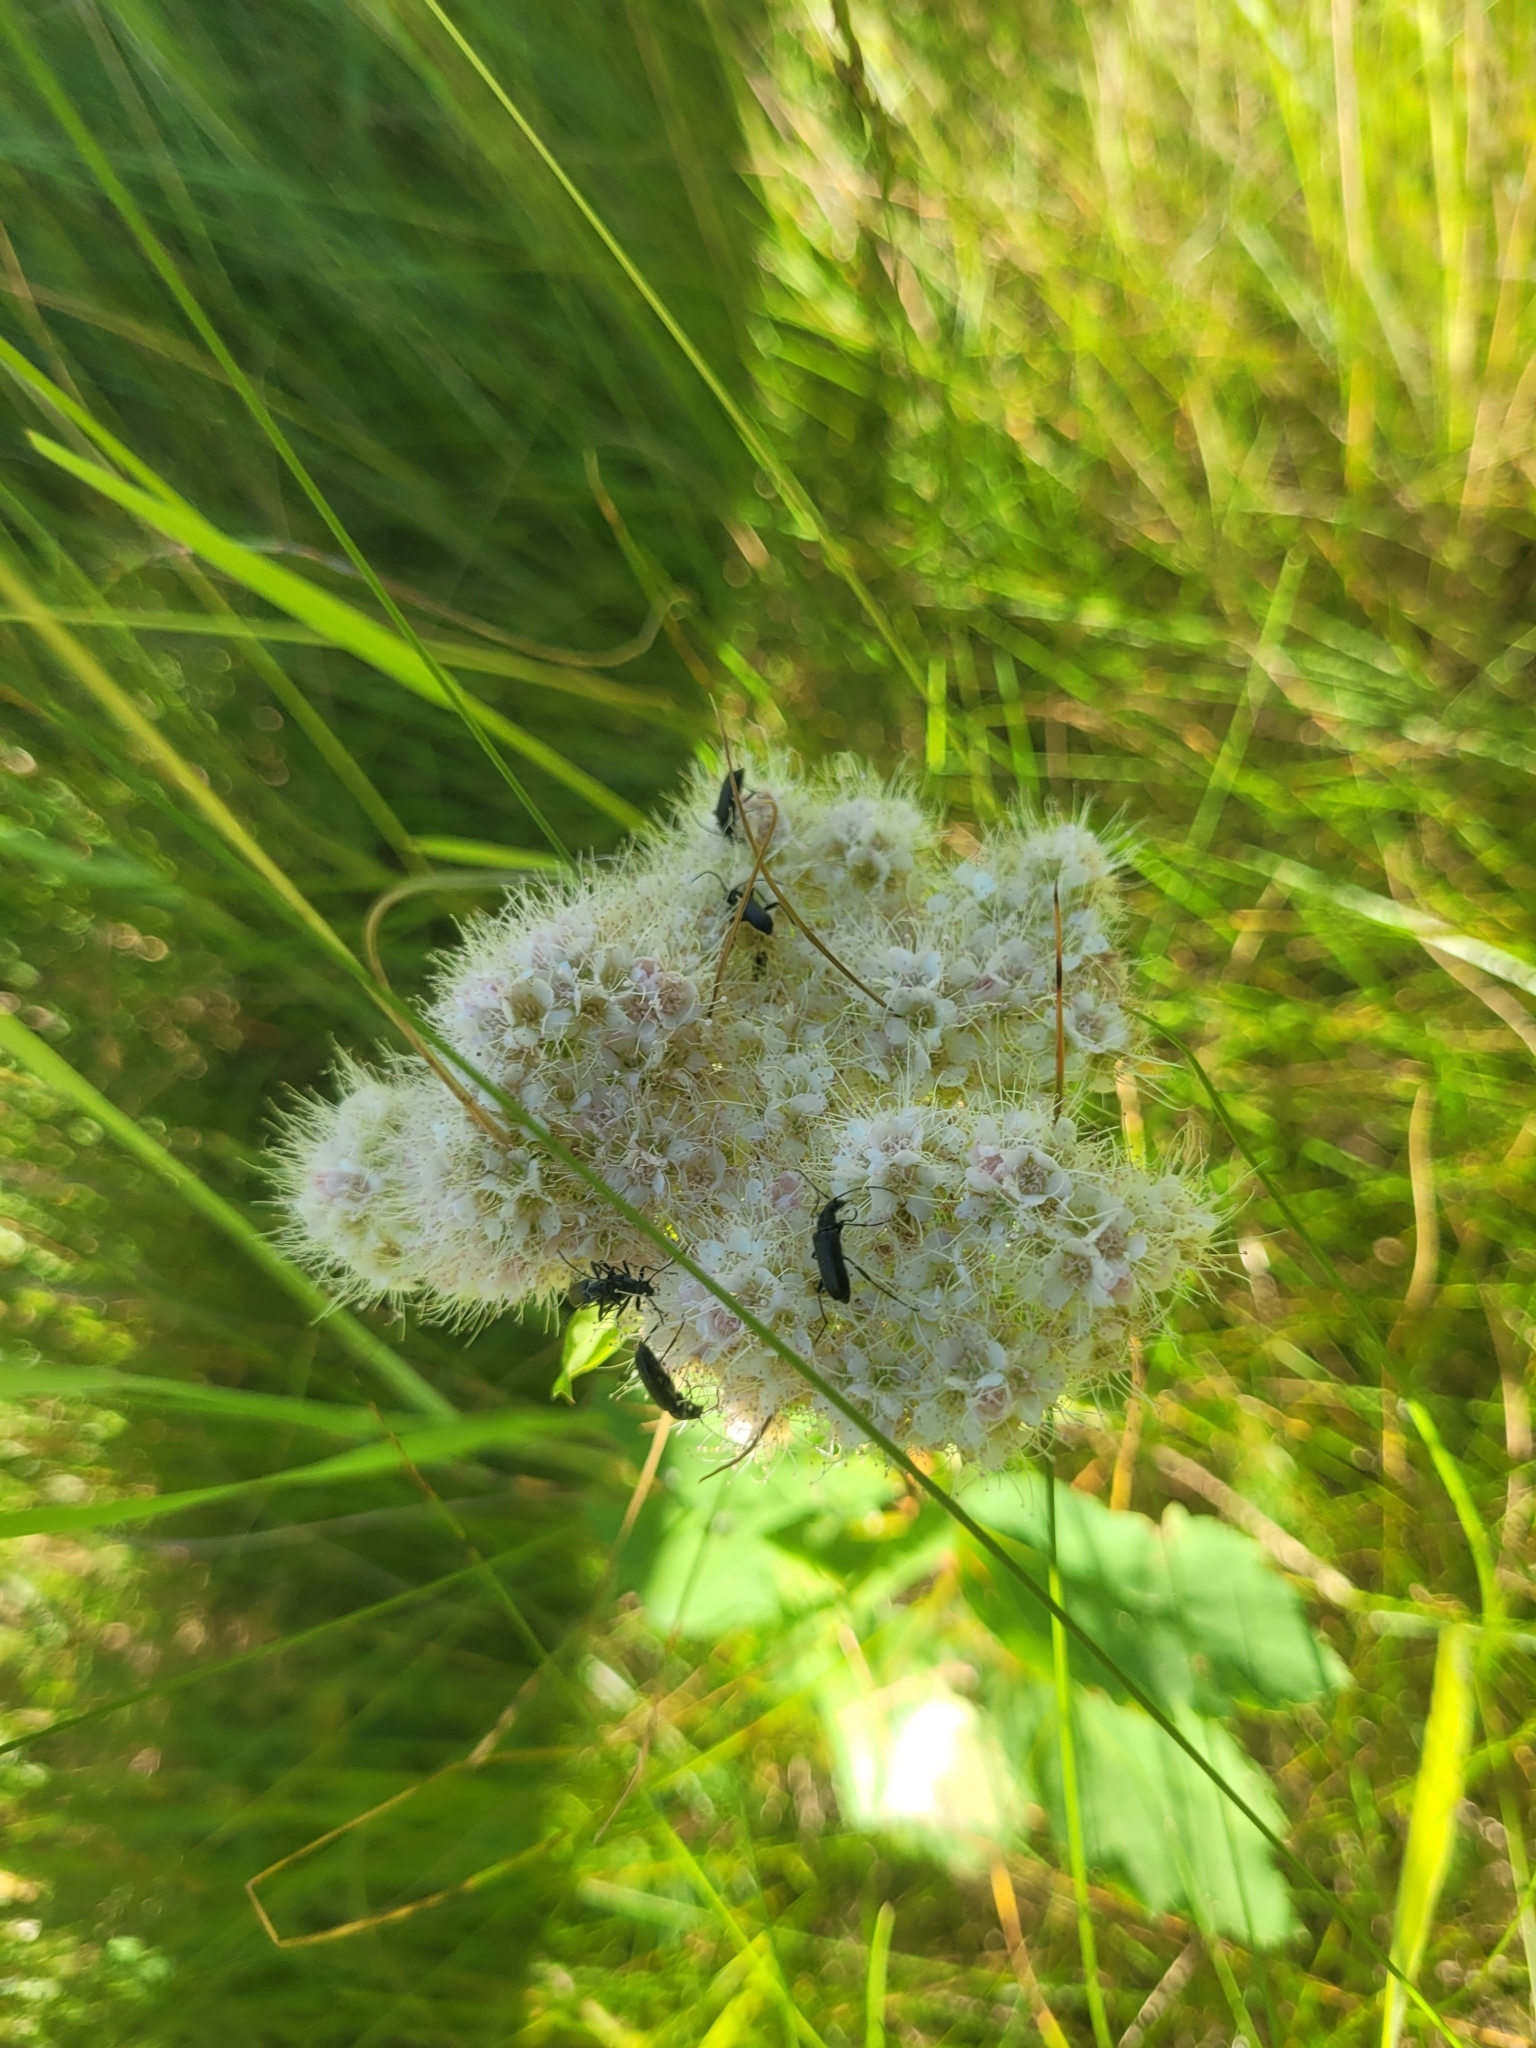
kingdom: Plantae
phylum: Tracheophyta
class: Magnoliopsida
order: Rosales
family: Rosaceae
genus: Spiraea
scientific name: Spiraea lucida
